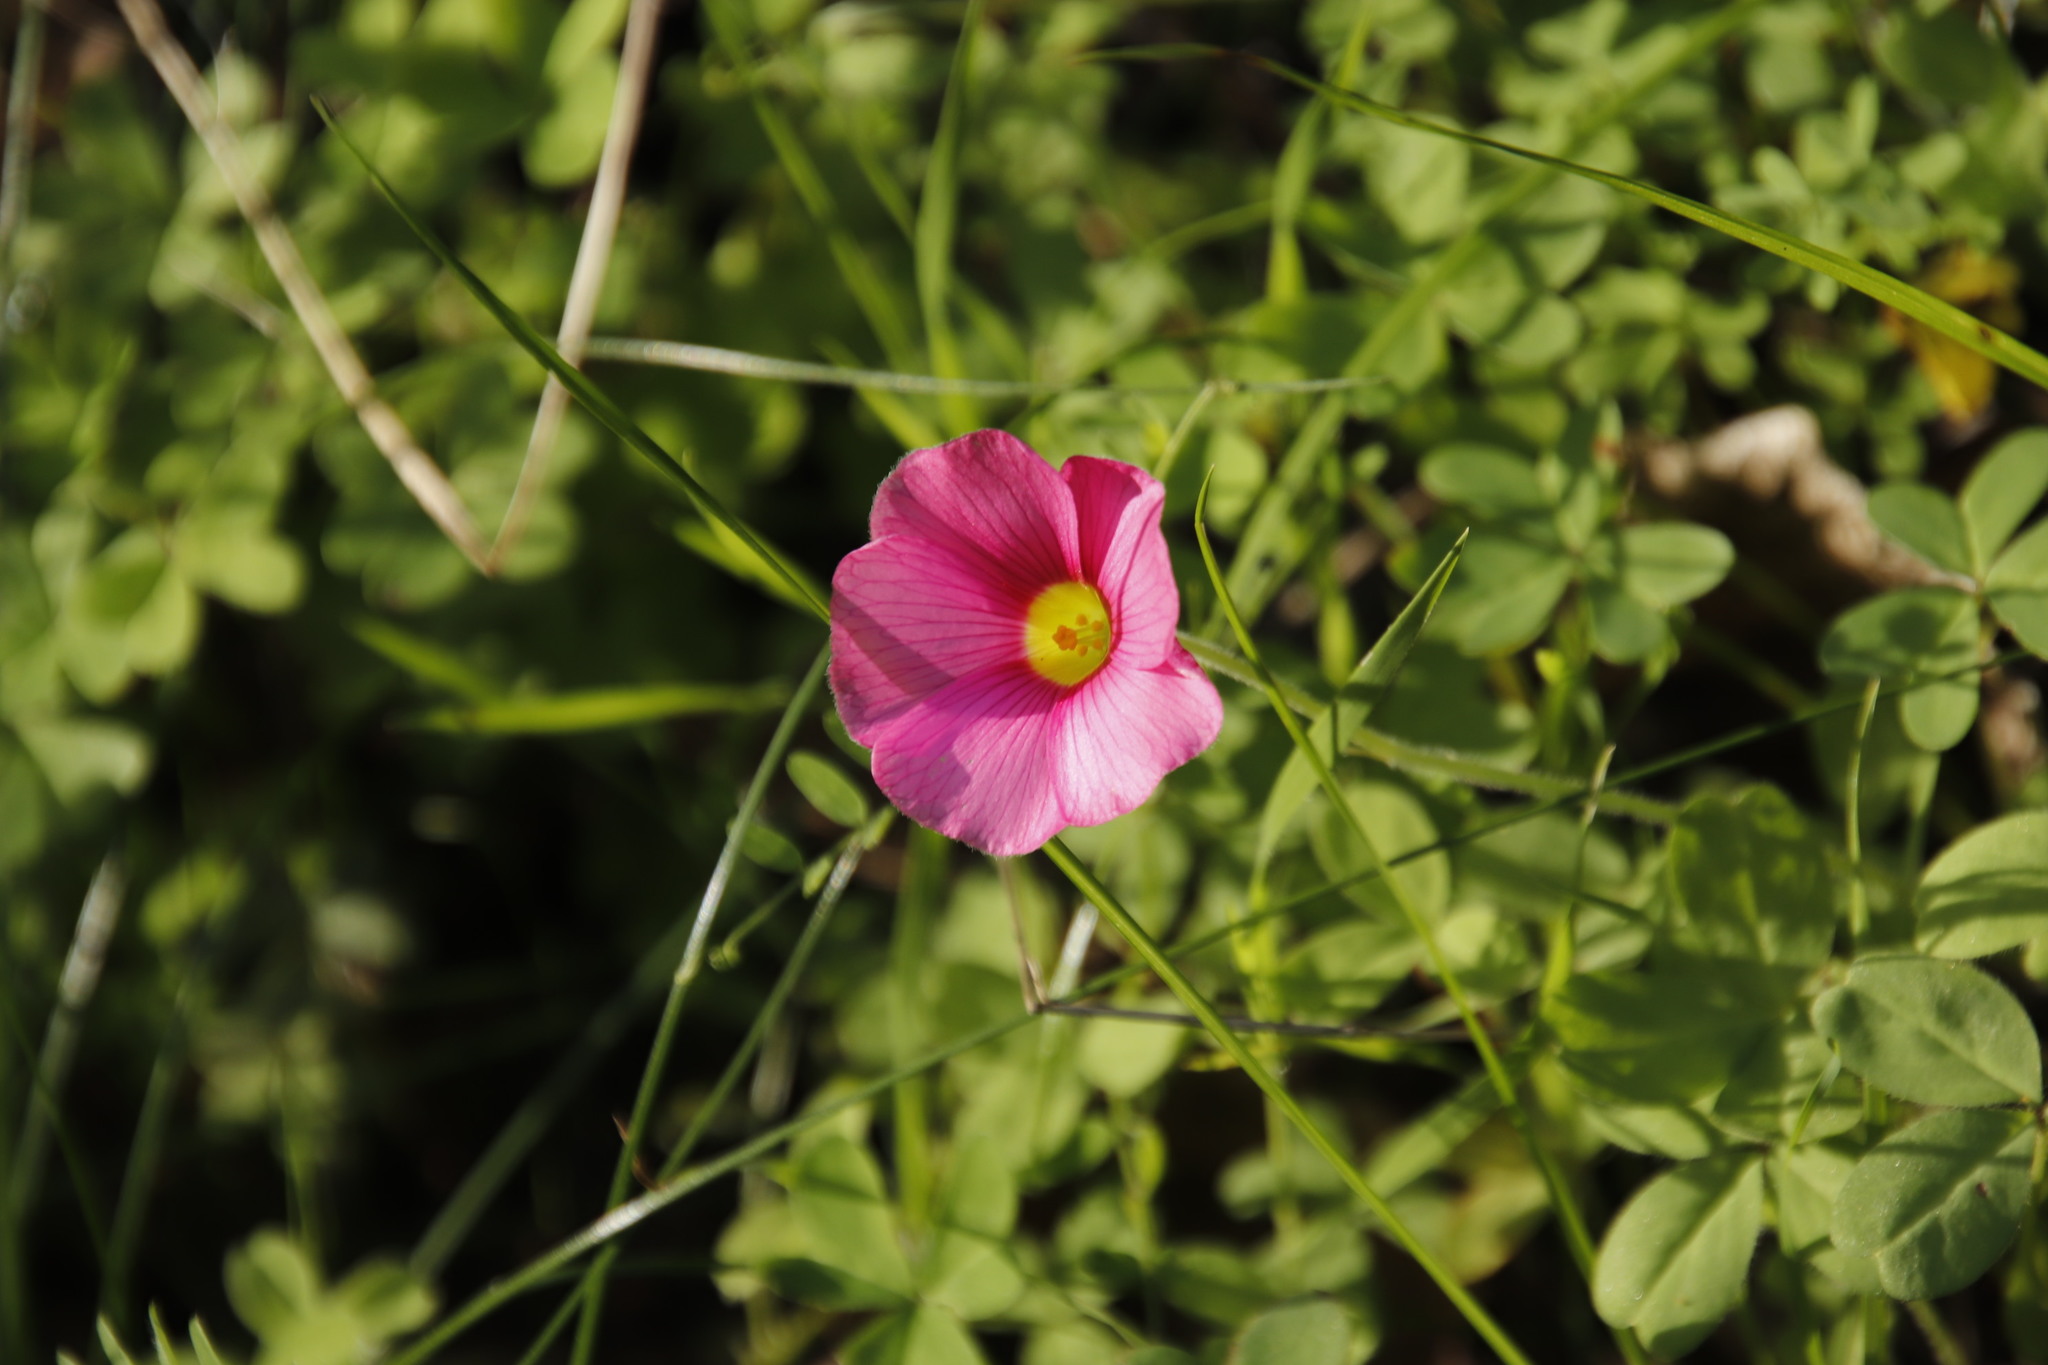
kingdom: Plantae
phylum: Tracheophyta
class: Magnoliopsida
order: Oxalidales
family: Oxalidaceae
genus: Oxalis
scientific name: Oxalis obtusa
